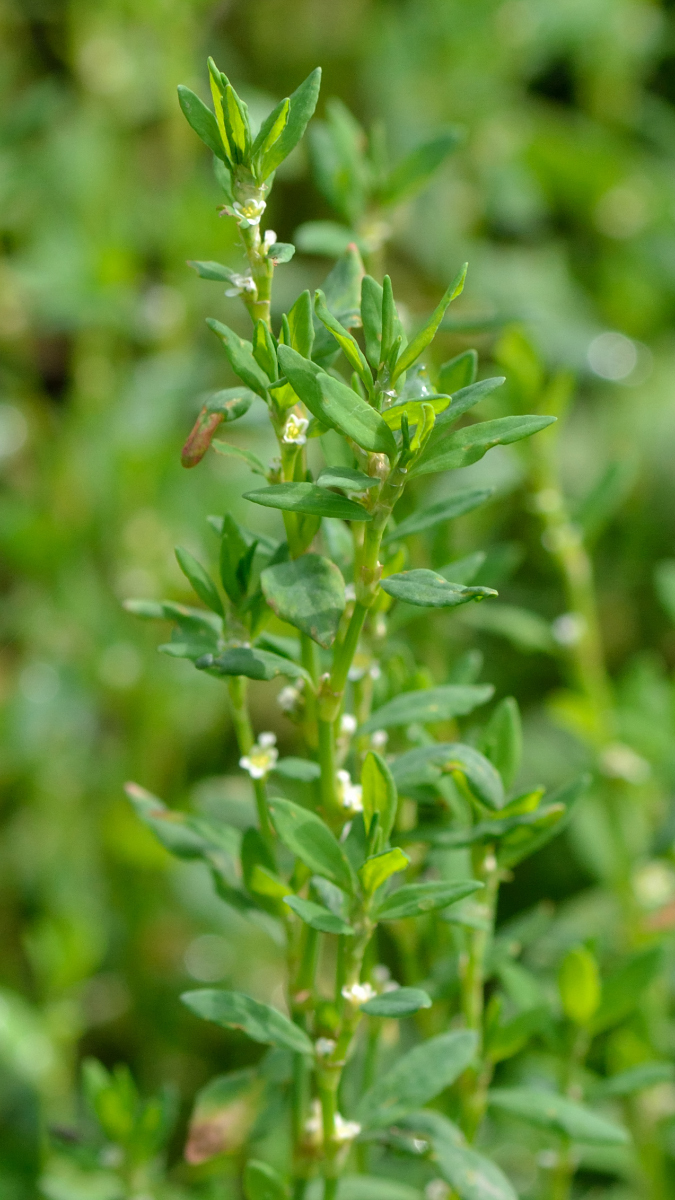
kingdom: Plantae
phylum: Tracheophyta
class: Magnoliopsida
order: Caryophyllales
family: Polygonaceae
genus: Polygonum
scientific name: Polygonum
